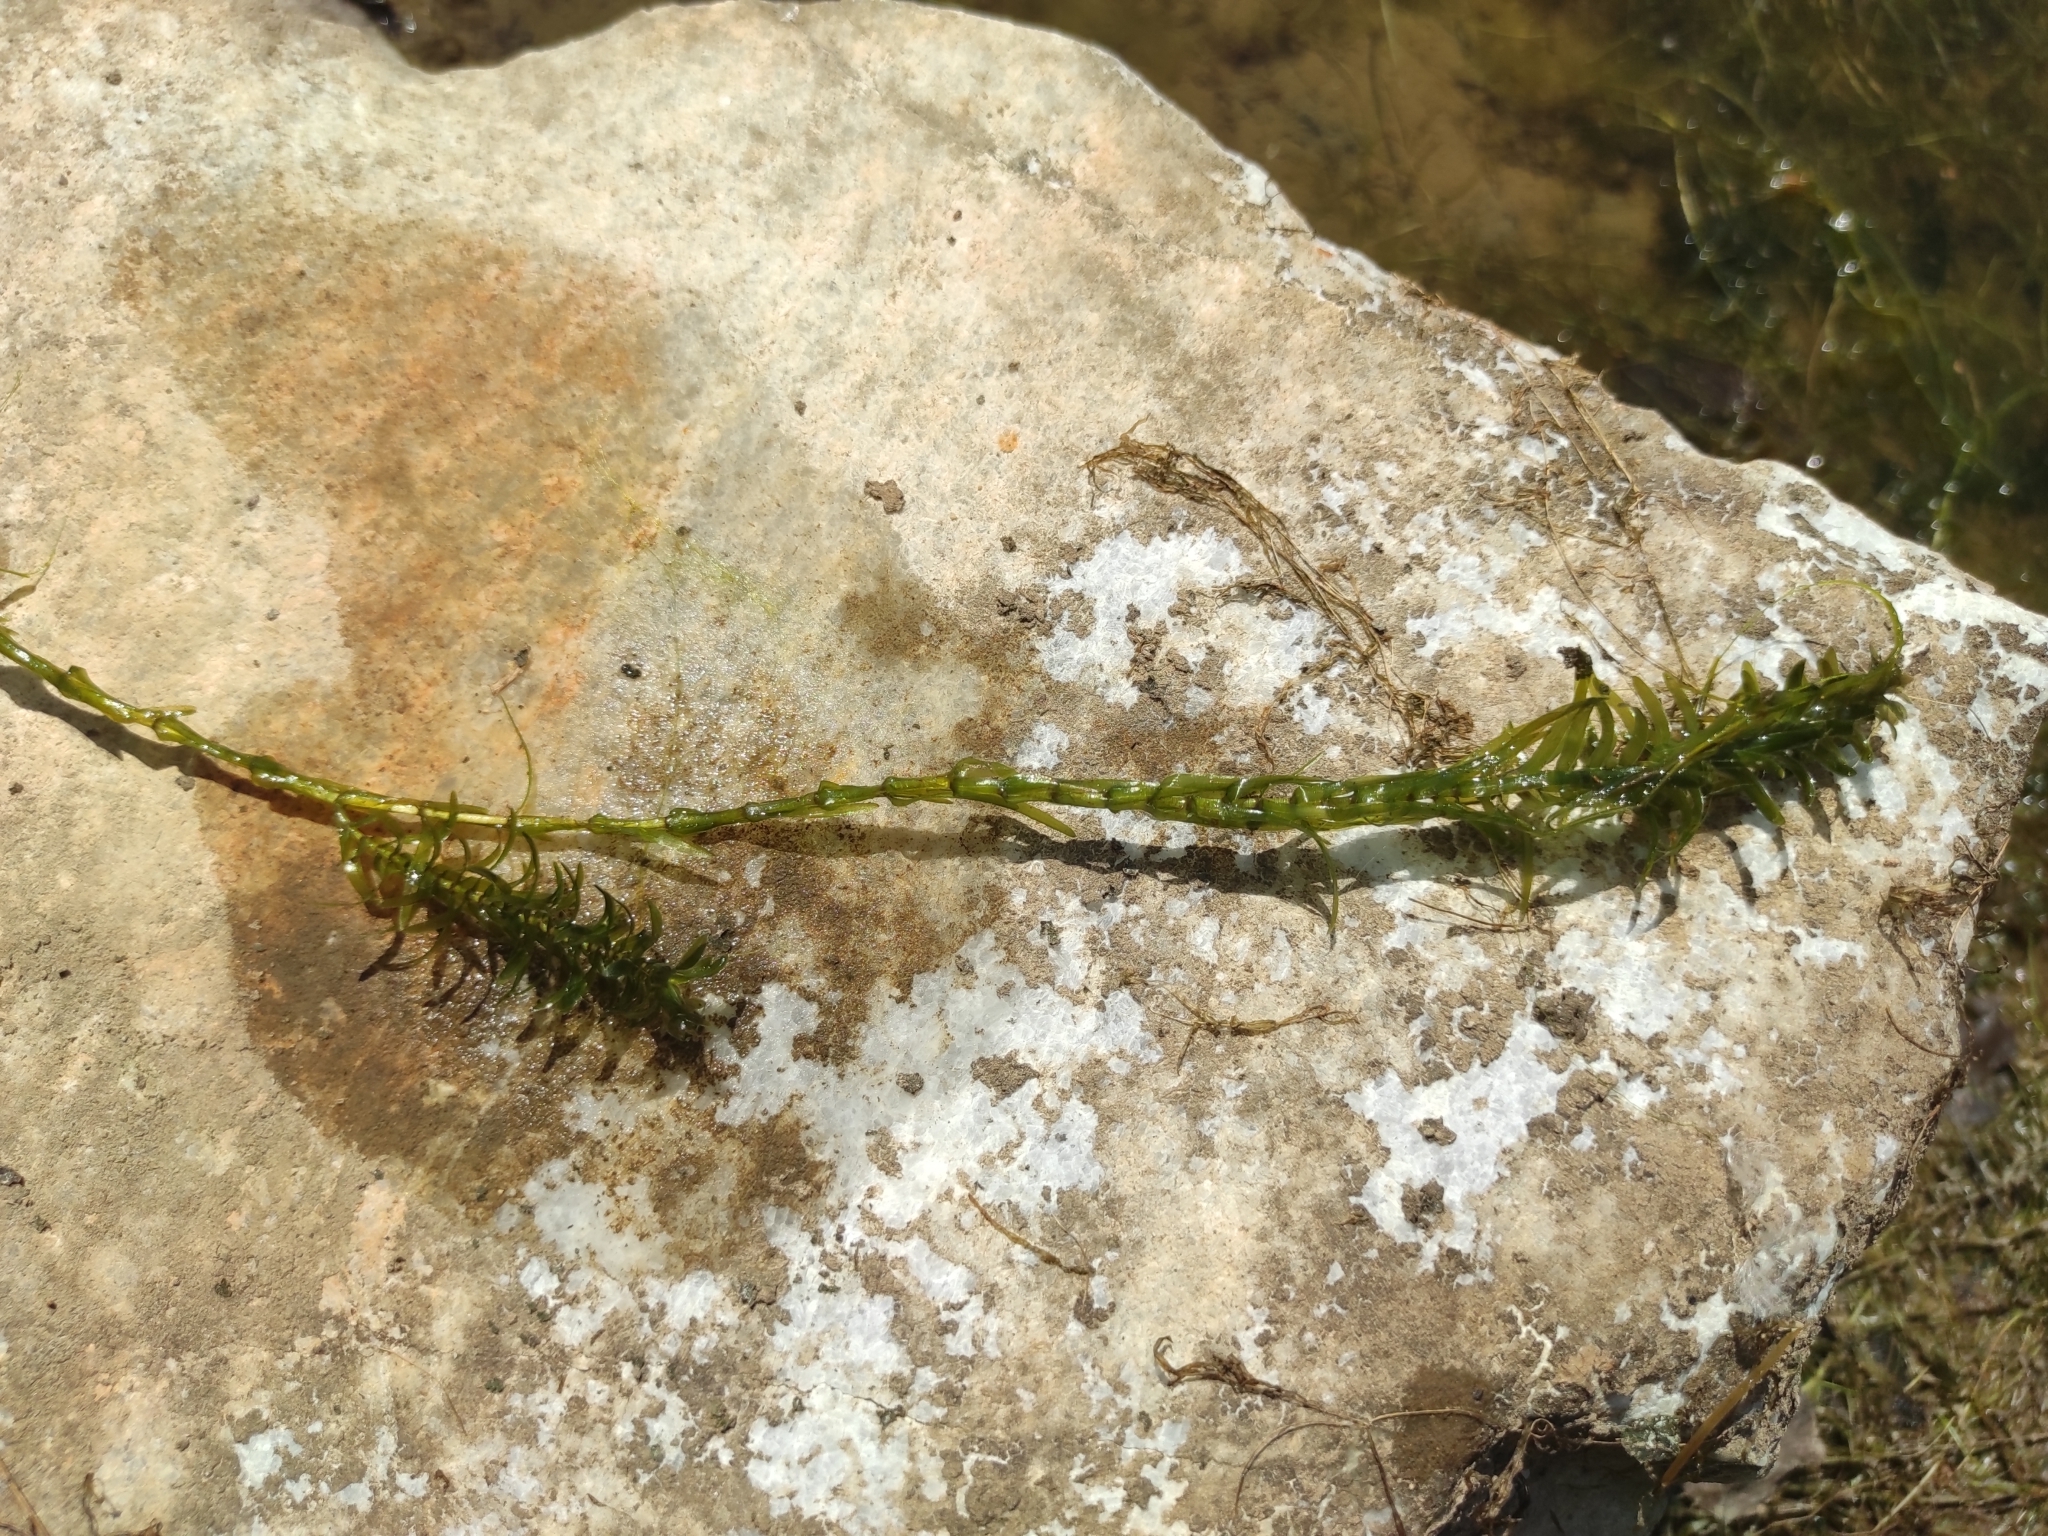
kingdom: Plantae
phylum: Tracheophyta
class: Magnoliopsida
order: Lamiales
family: Plantaginaceae
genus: Hippuris
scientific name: Hippuris vulgaris
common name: Mare's-tail
